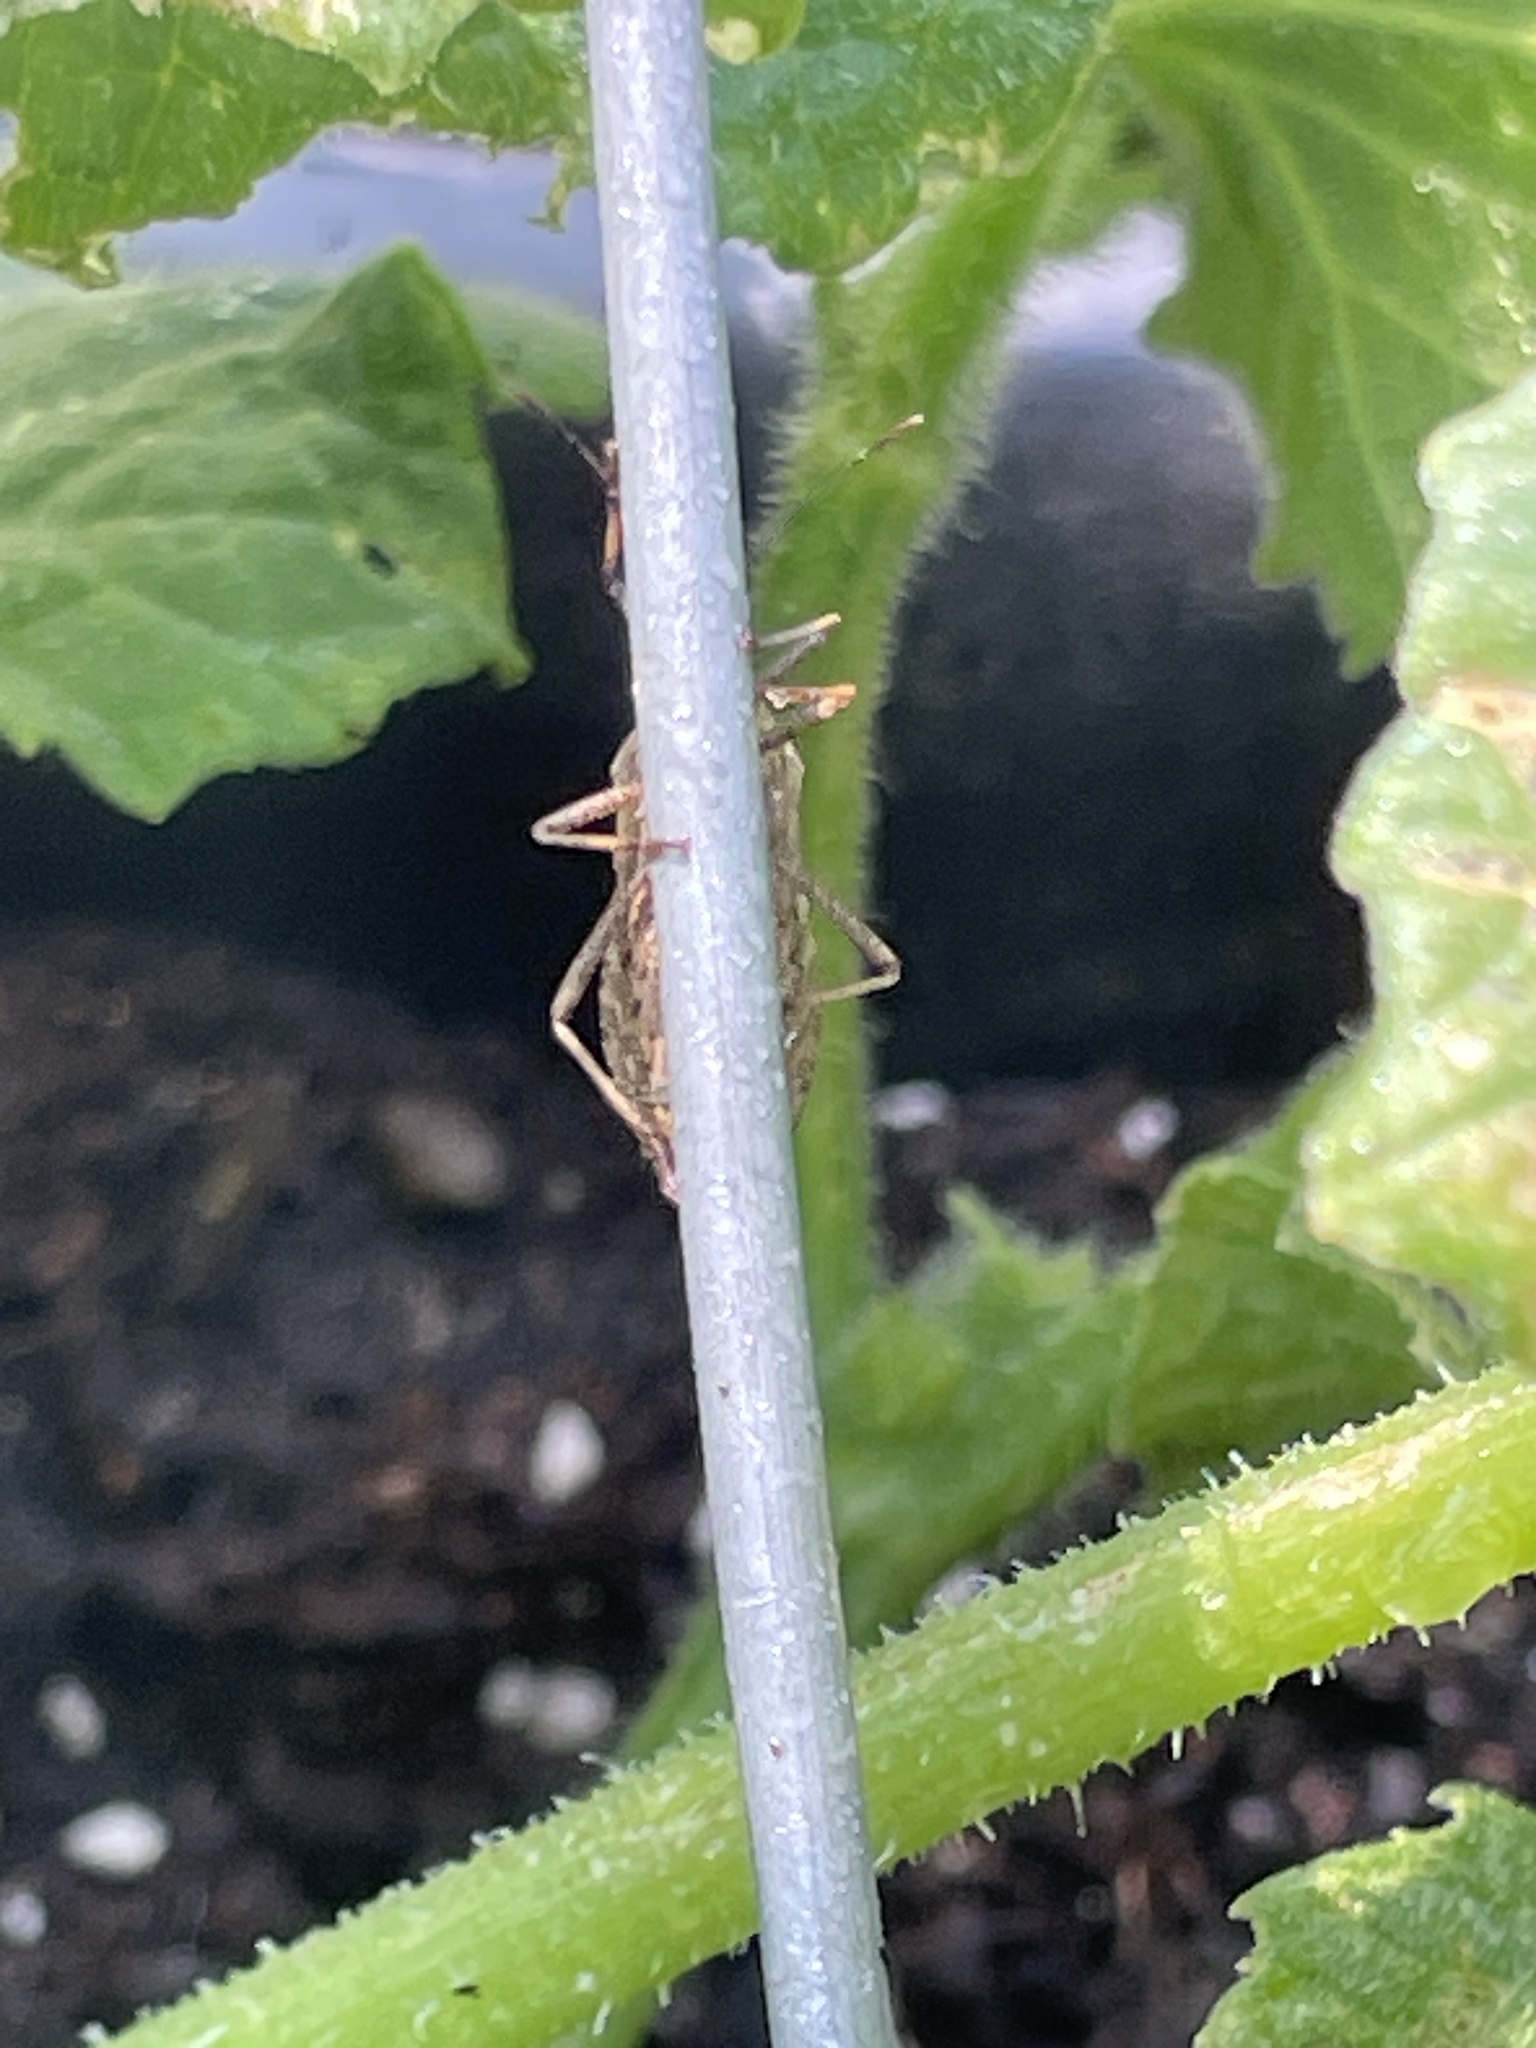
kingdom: Animalia
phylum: Arthropoda
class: Insecta
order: Hemiptera
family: Coreidae
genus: Anasa
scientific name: Anasa tristis
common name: Squash bug
